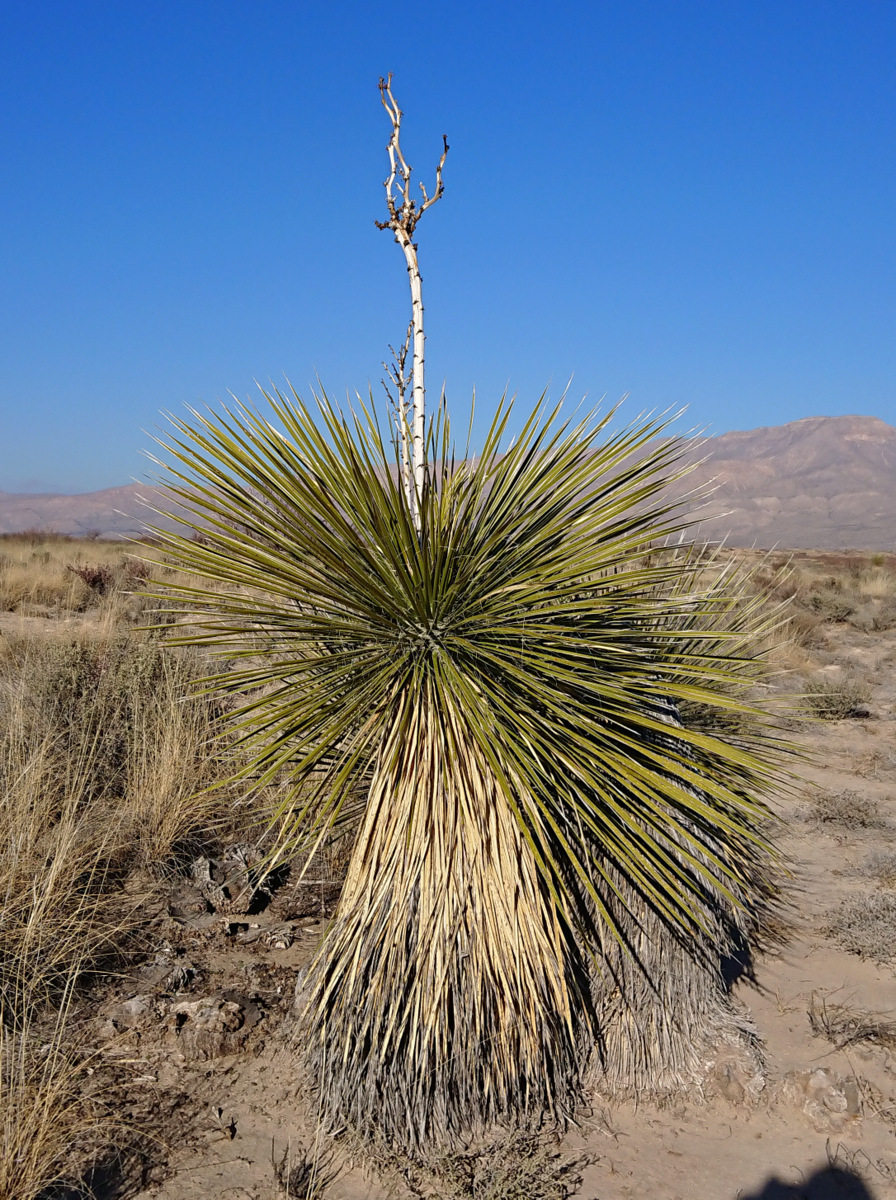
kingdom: Plantae
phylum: Tracheophyta
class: Liliopsida
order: Asparagales
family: Asparagaceae
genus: Yucca
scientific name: Yucca elata
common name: Palmella
